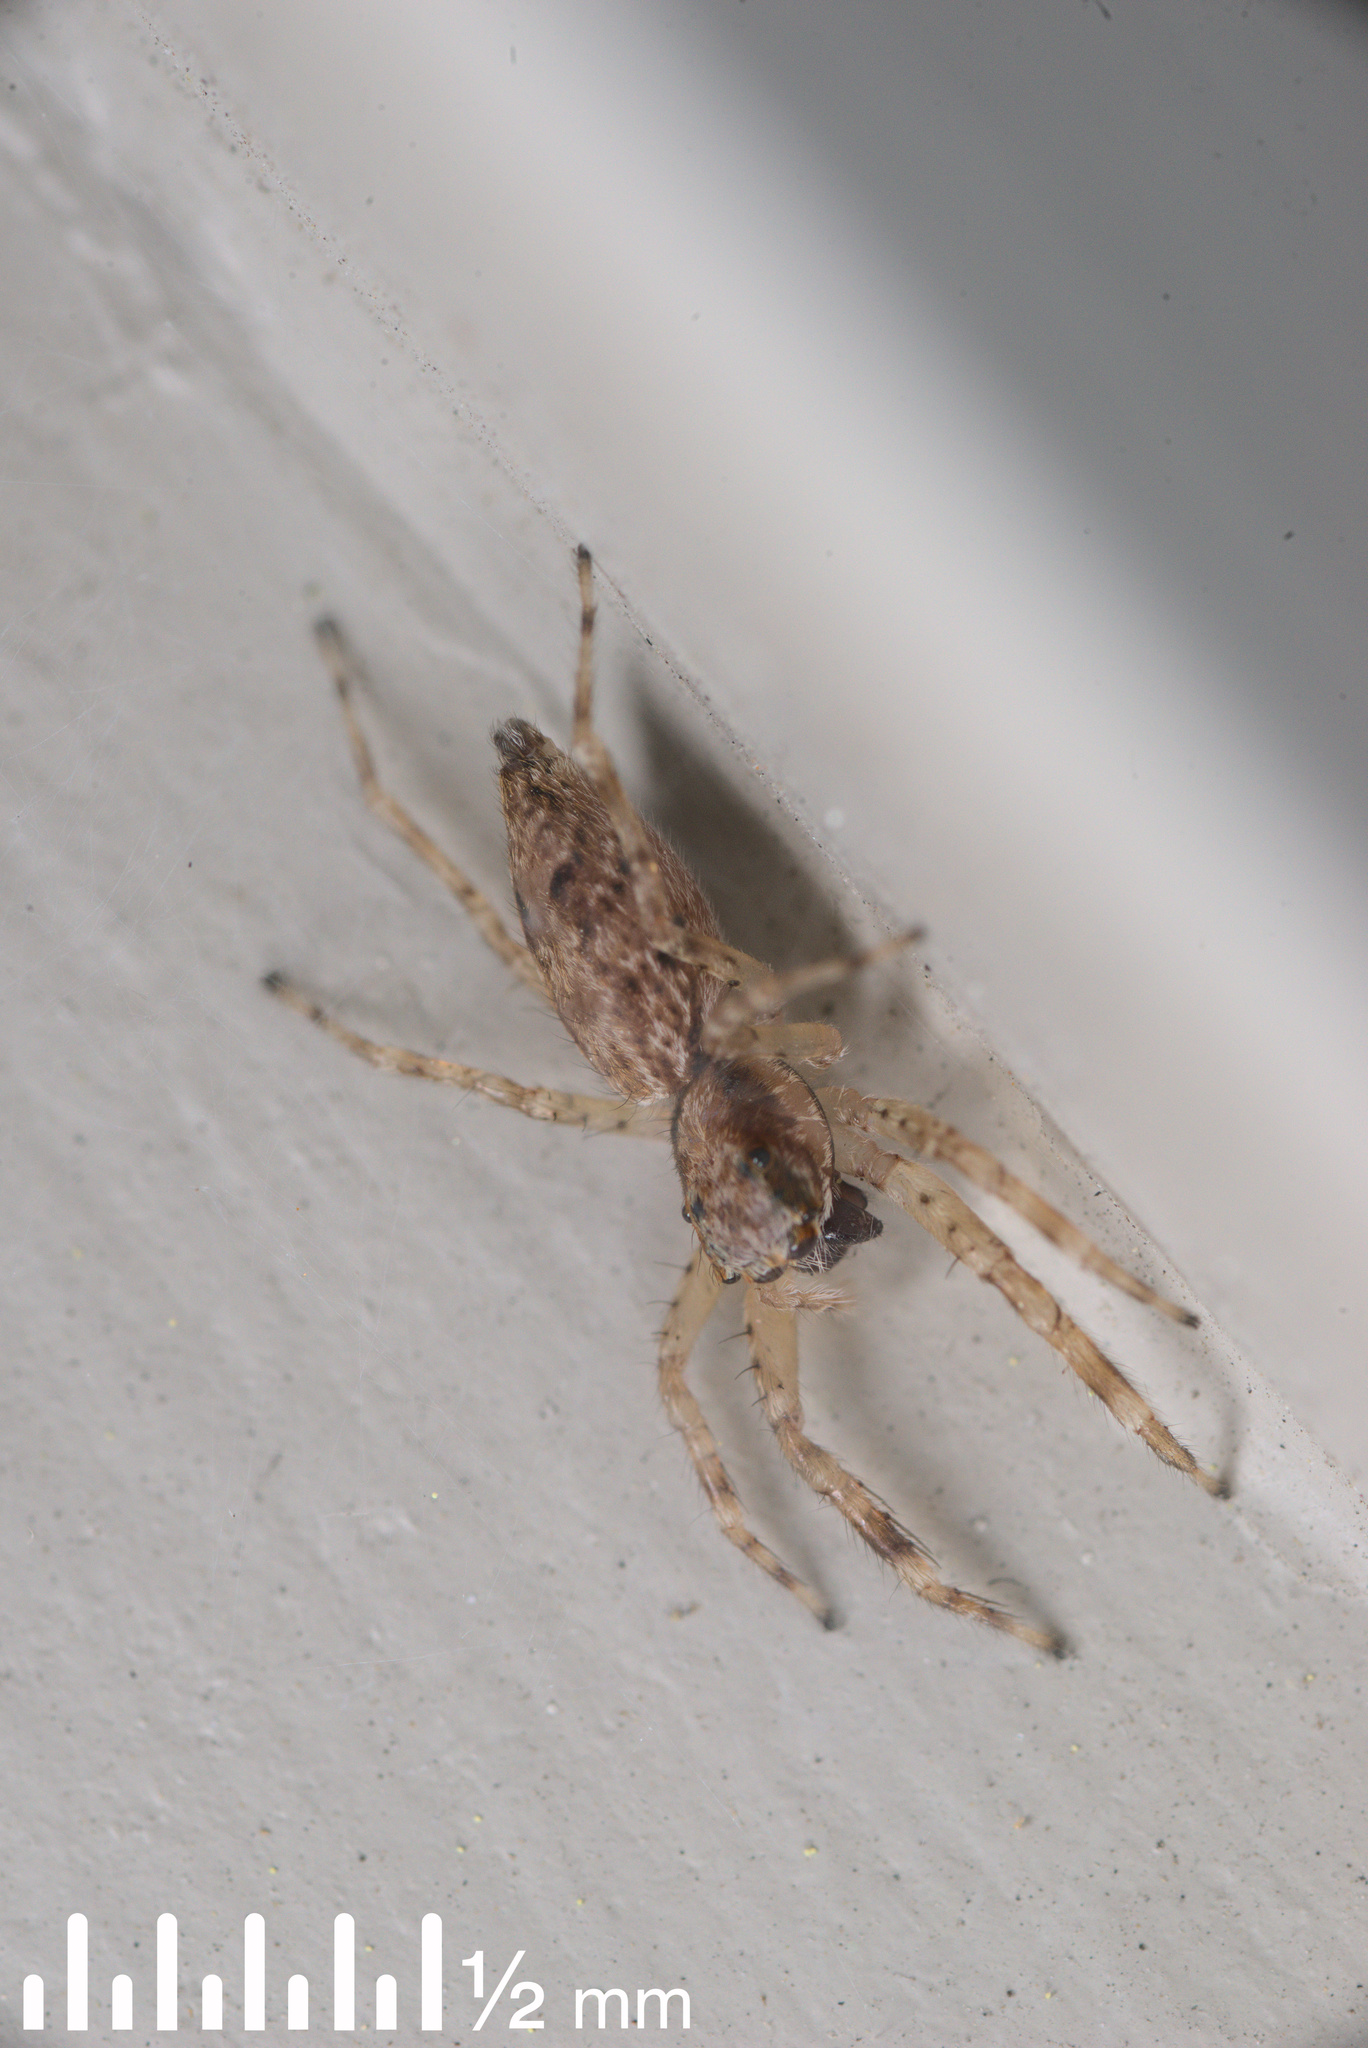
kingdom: Animalia
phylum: Arthropoda
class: Arachnida
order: Araneae
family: Salticidae
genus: Helpis
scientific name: Helpis minitabunda
